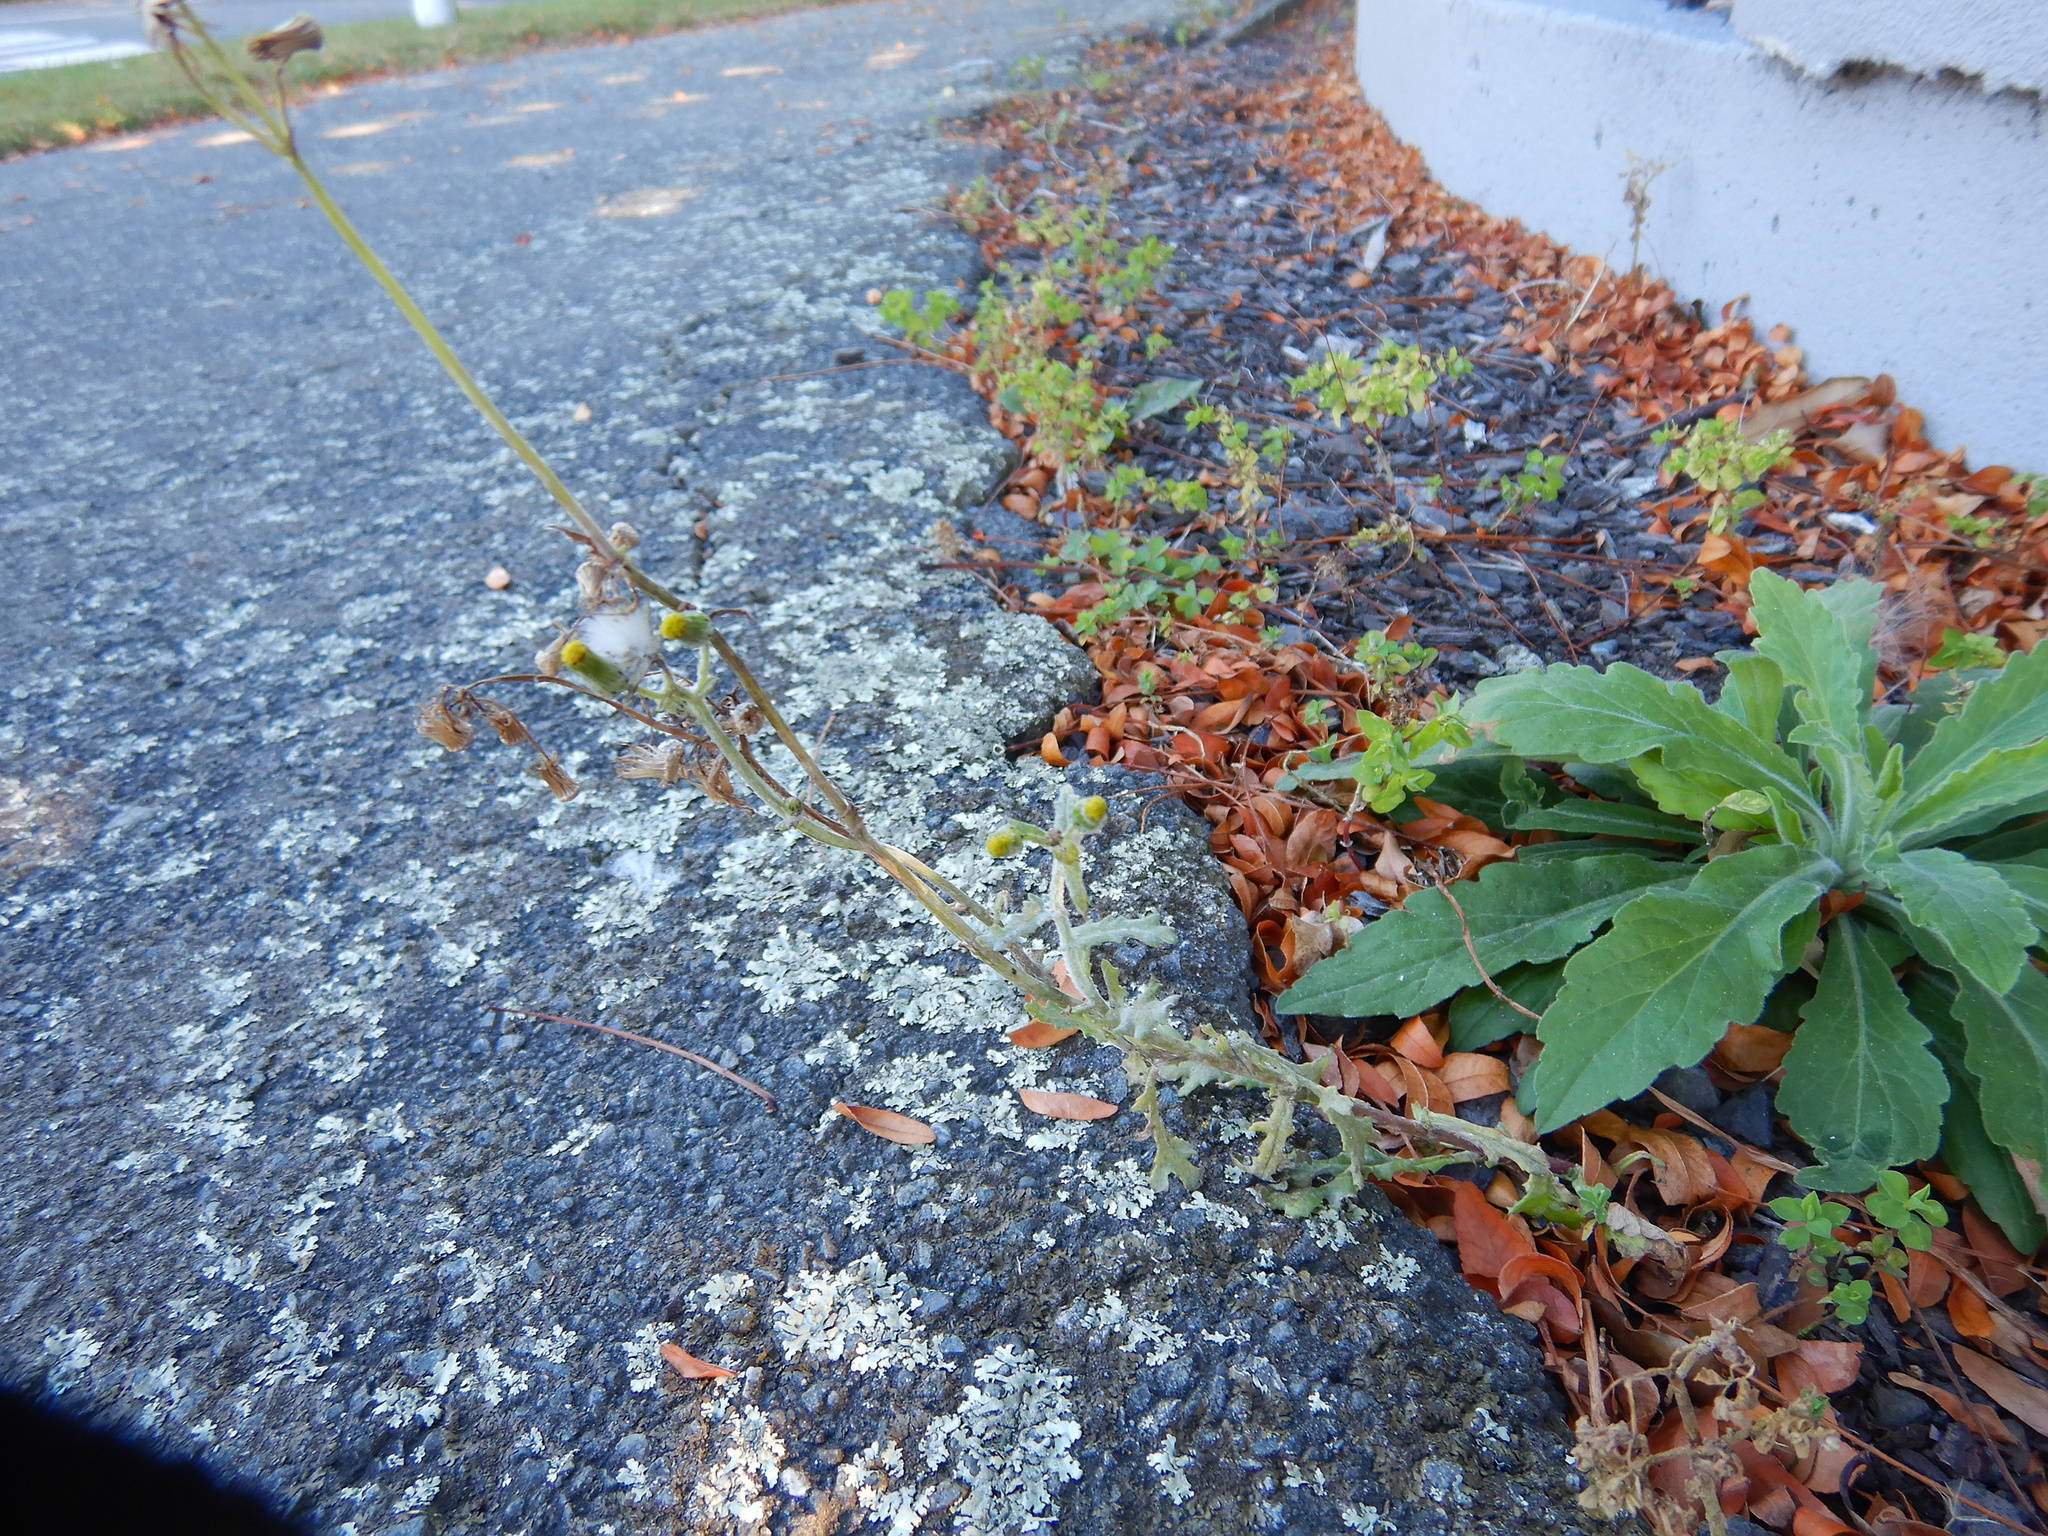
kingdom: Plantae
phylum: Tracheophyta
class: Magnoliopsida
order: Asterales
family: Asteraceae
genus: Senecio
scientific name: Senecio vulgaris
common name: Old-man-in-the-spring
